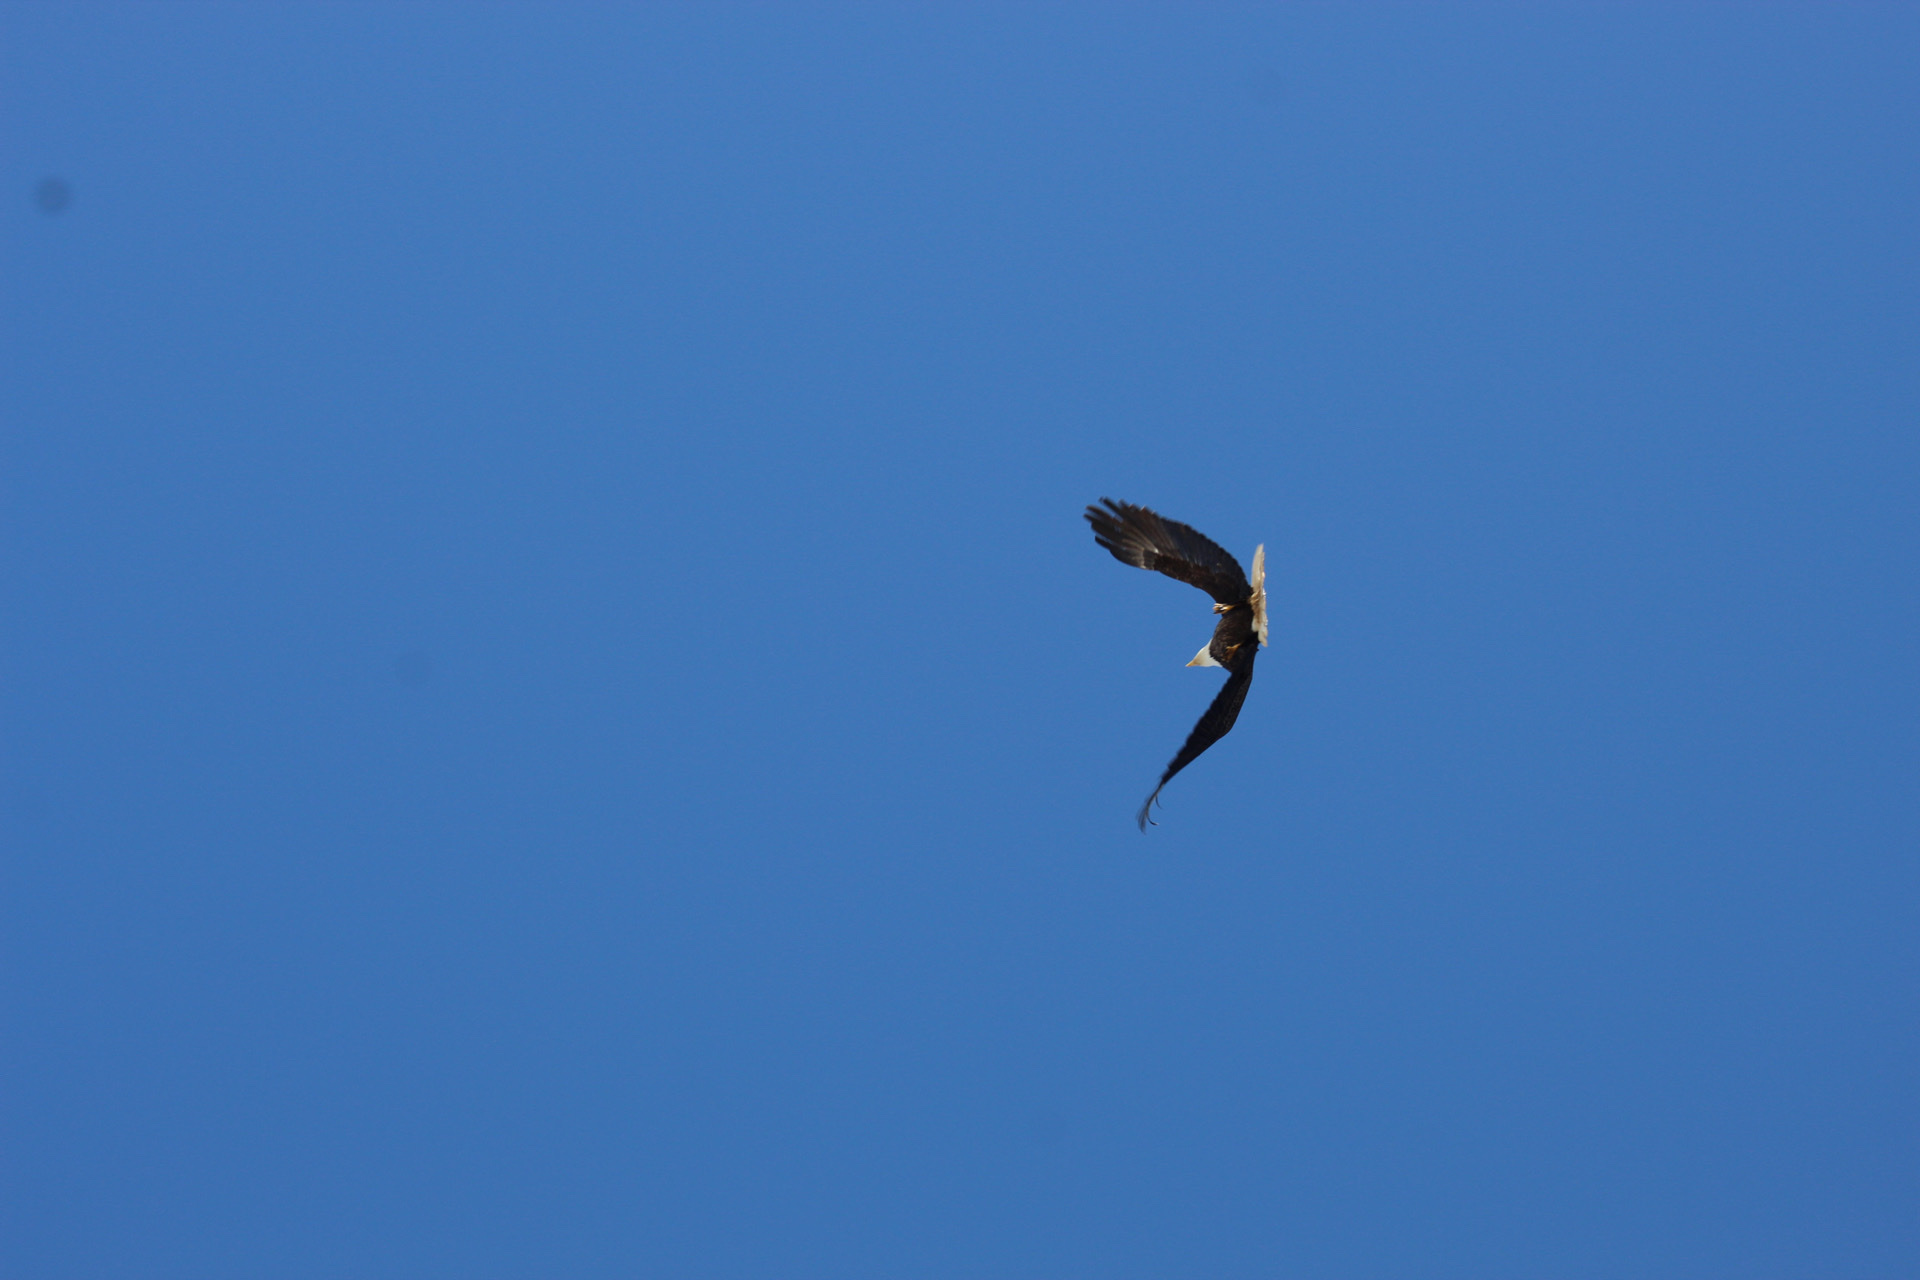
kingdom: Animalia
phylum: Chordata
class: Aves
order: Accipitriformes
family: Accipitridae
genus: Haliaeetus
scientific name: Haliaeetus leucocephalus
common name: Bald eagle
